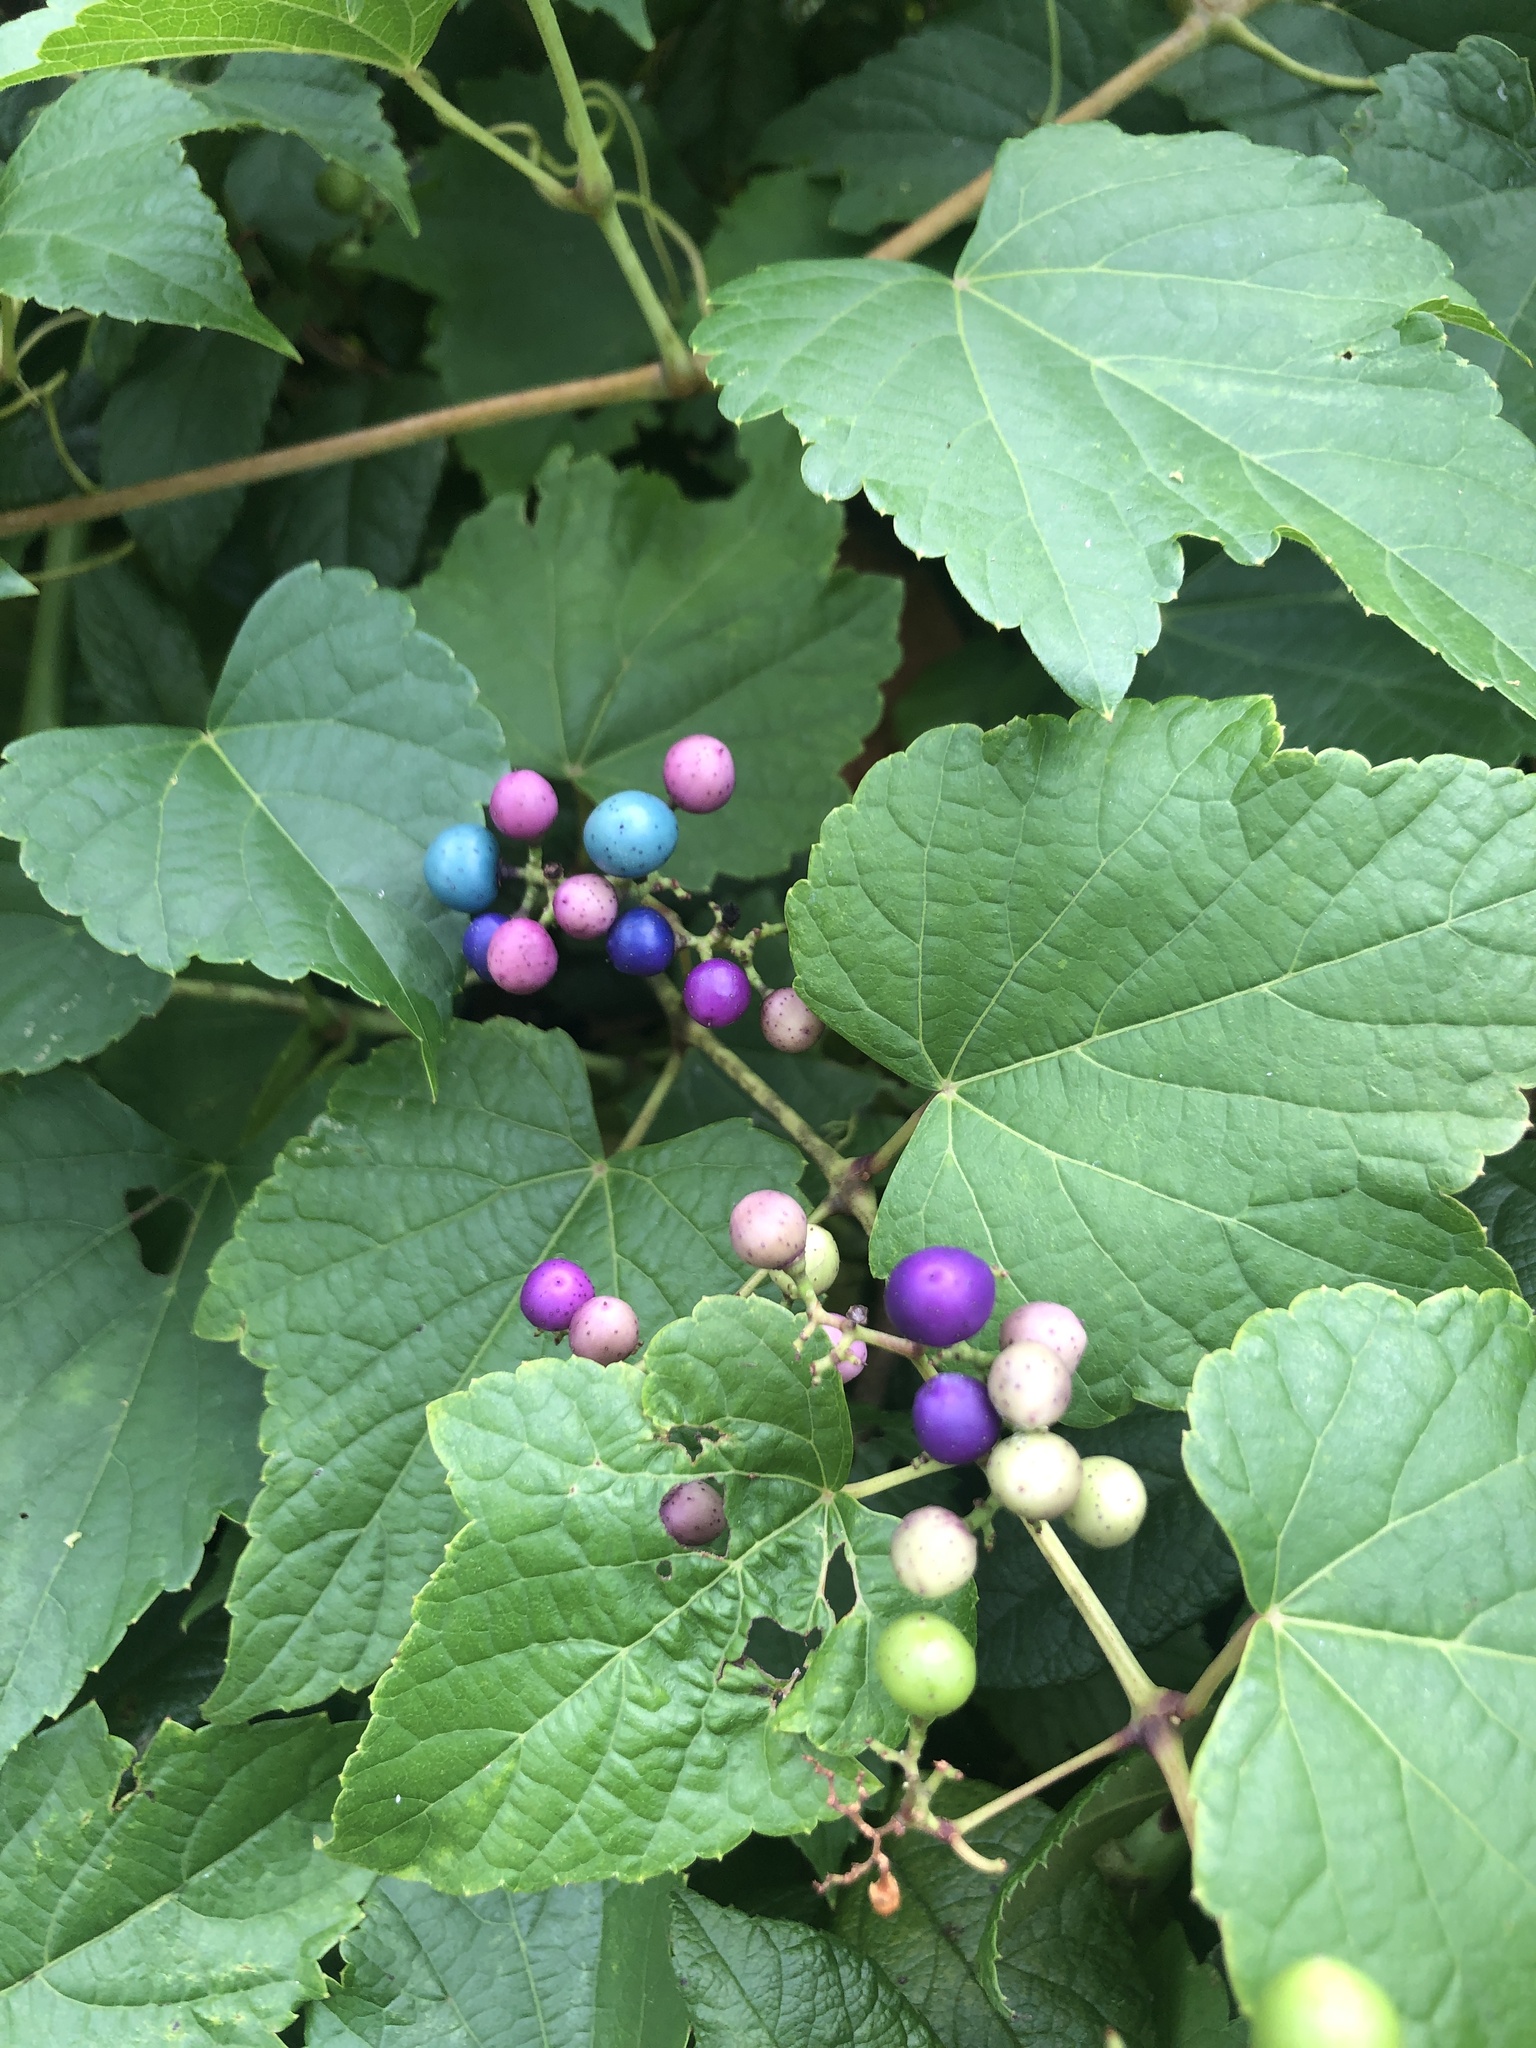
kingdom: Plantae
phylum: Tracheophyta
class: Magnoliopsida
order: Vitales
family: Vitaceae
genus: Ampelopsis
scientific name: Ampelopsis glandulosa
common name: Amur peppervine
